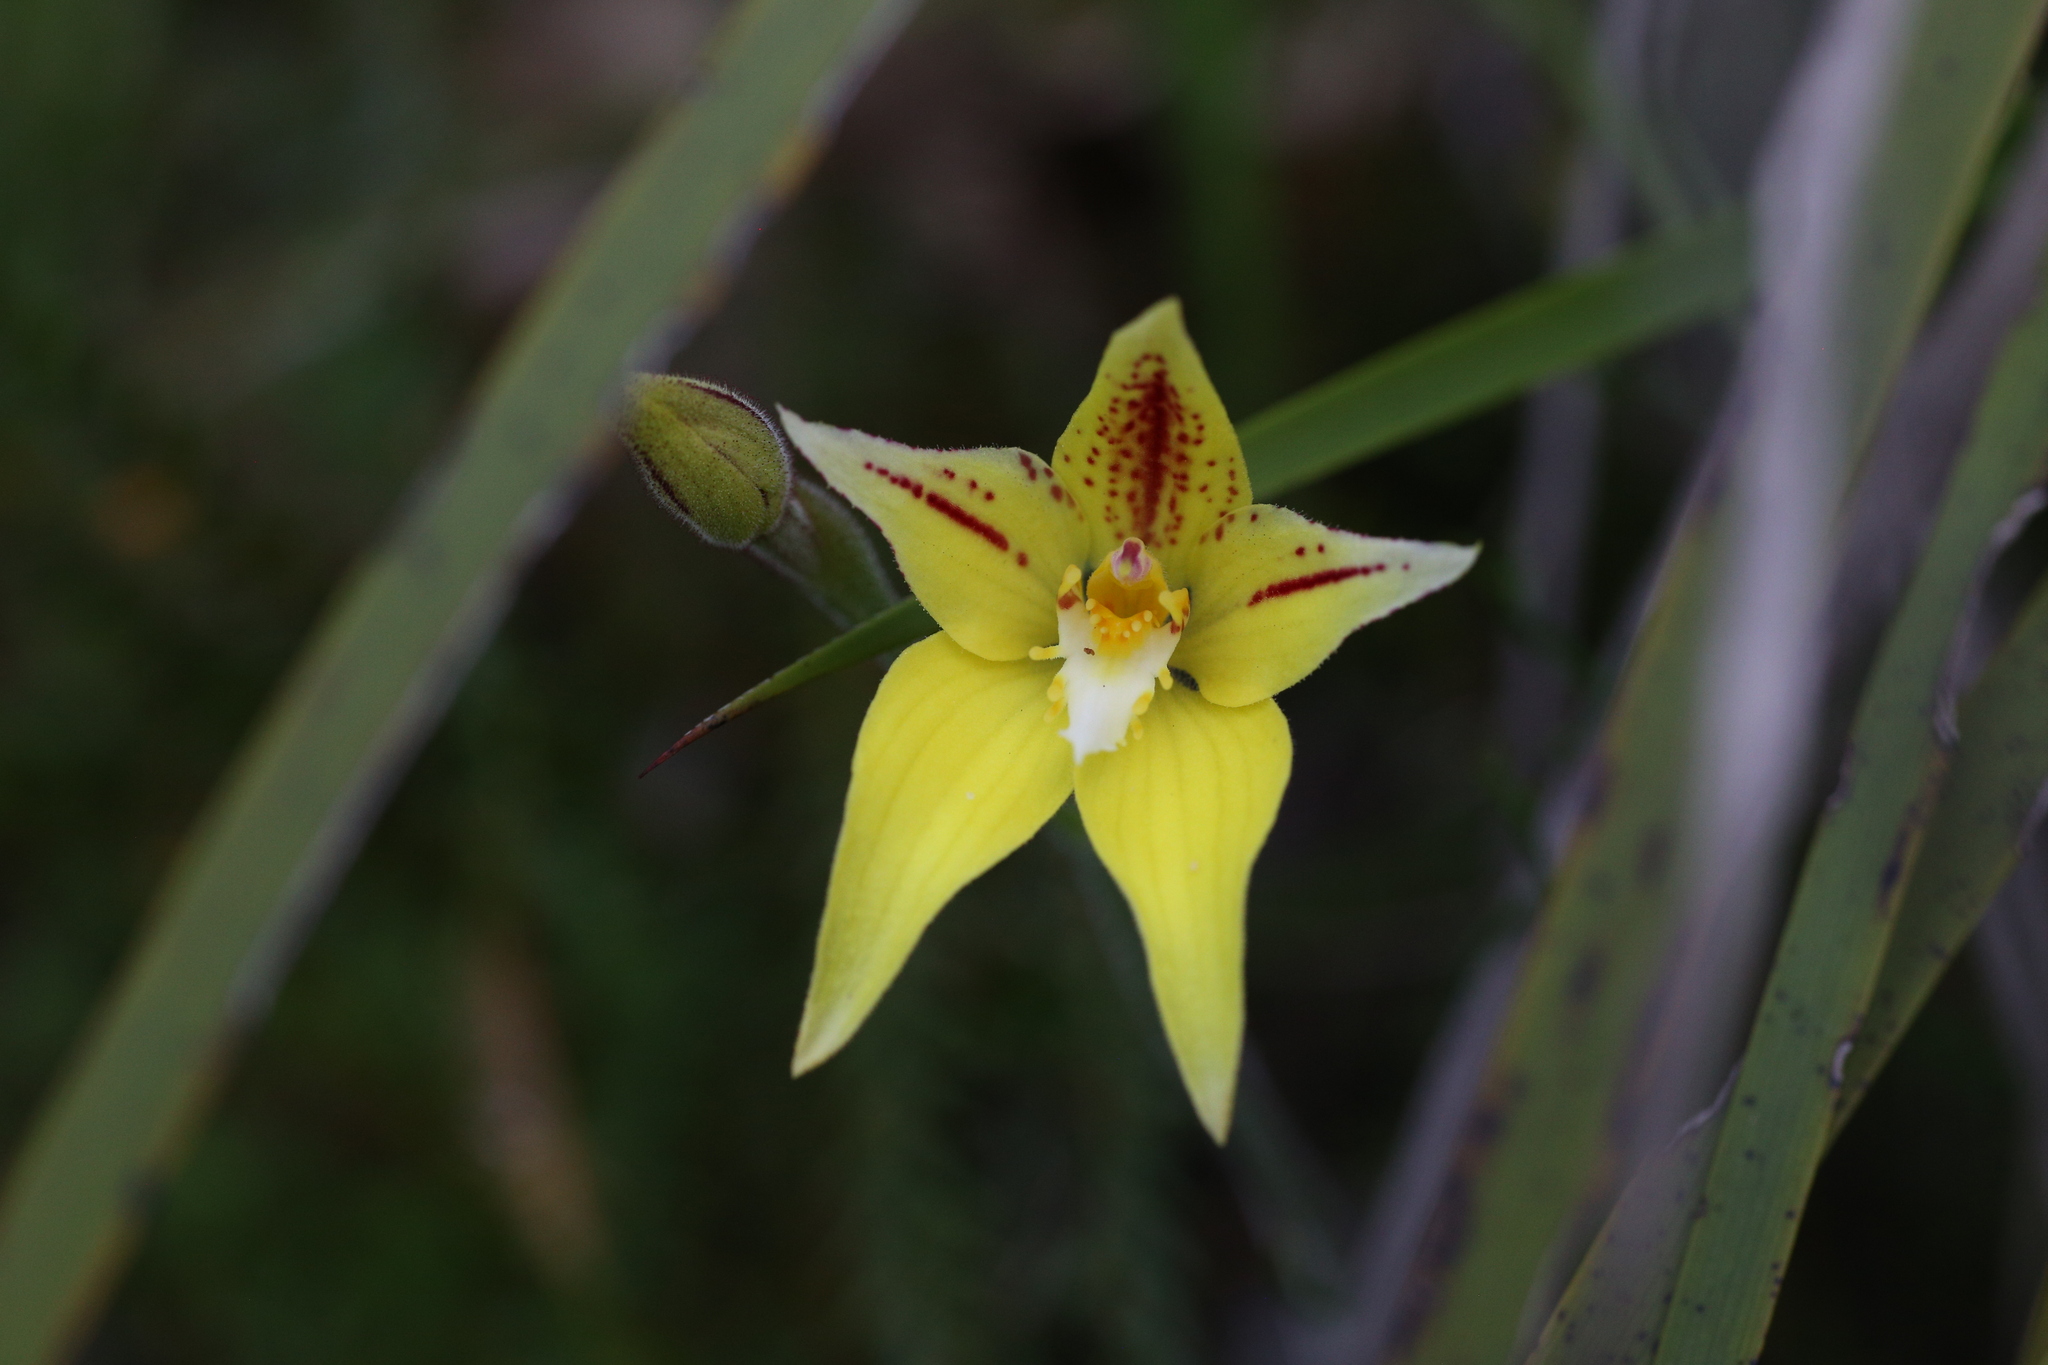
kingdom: Plantae
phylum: Tracheophyta
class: Liliopsida
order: Asparagales
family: Orchidaceae
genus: Caladenia
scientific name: Caladenia flava
